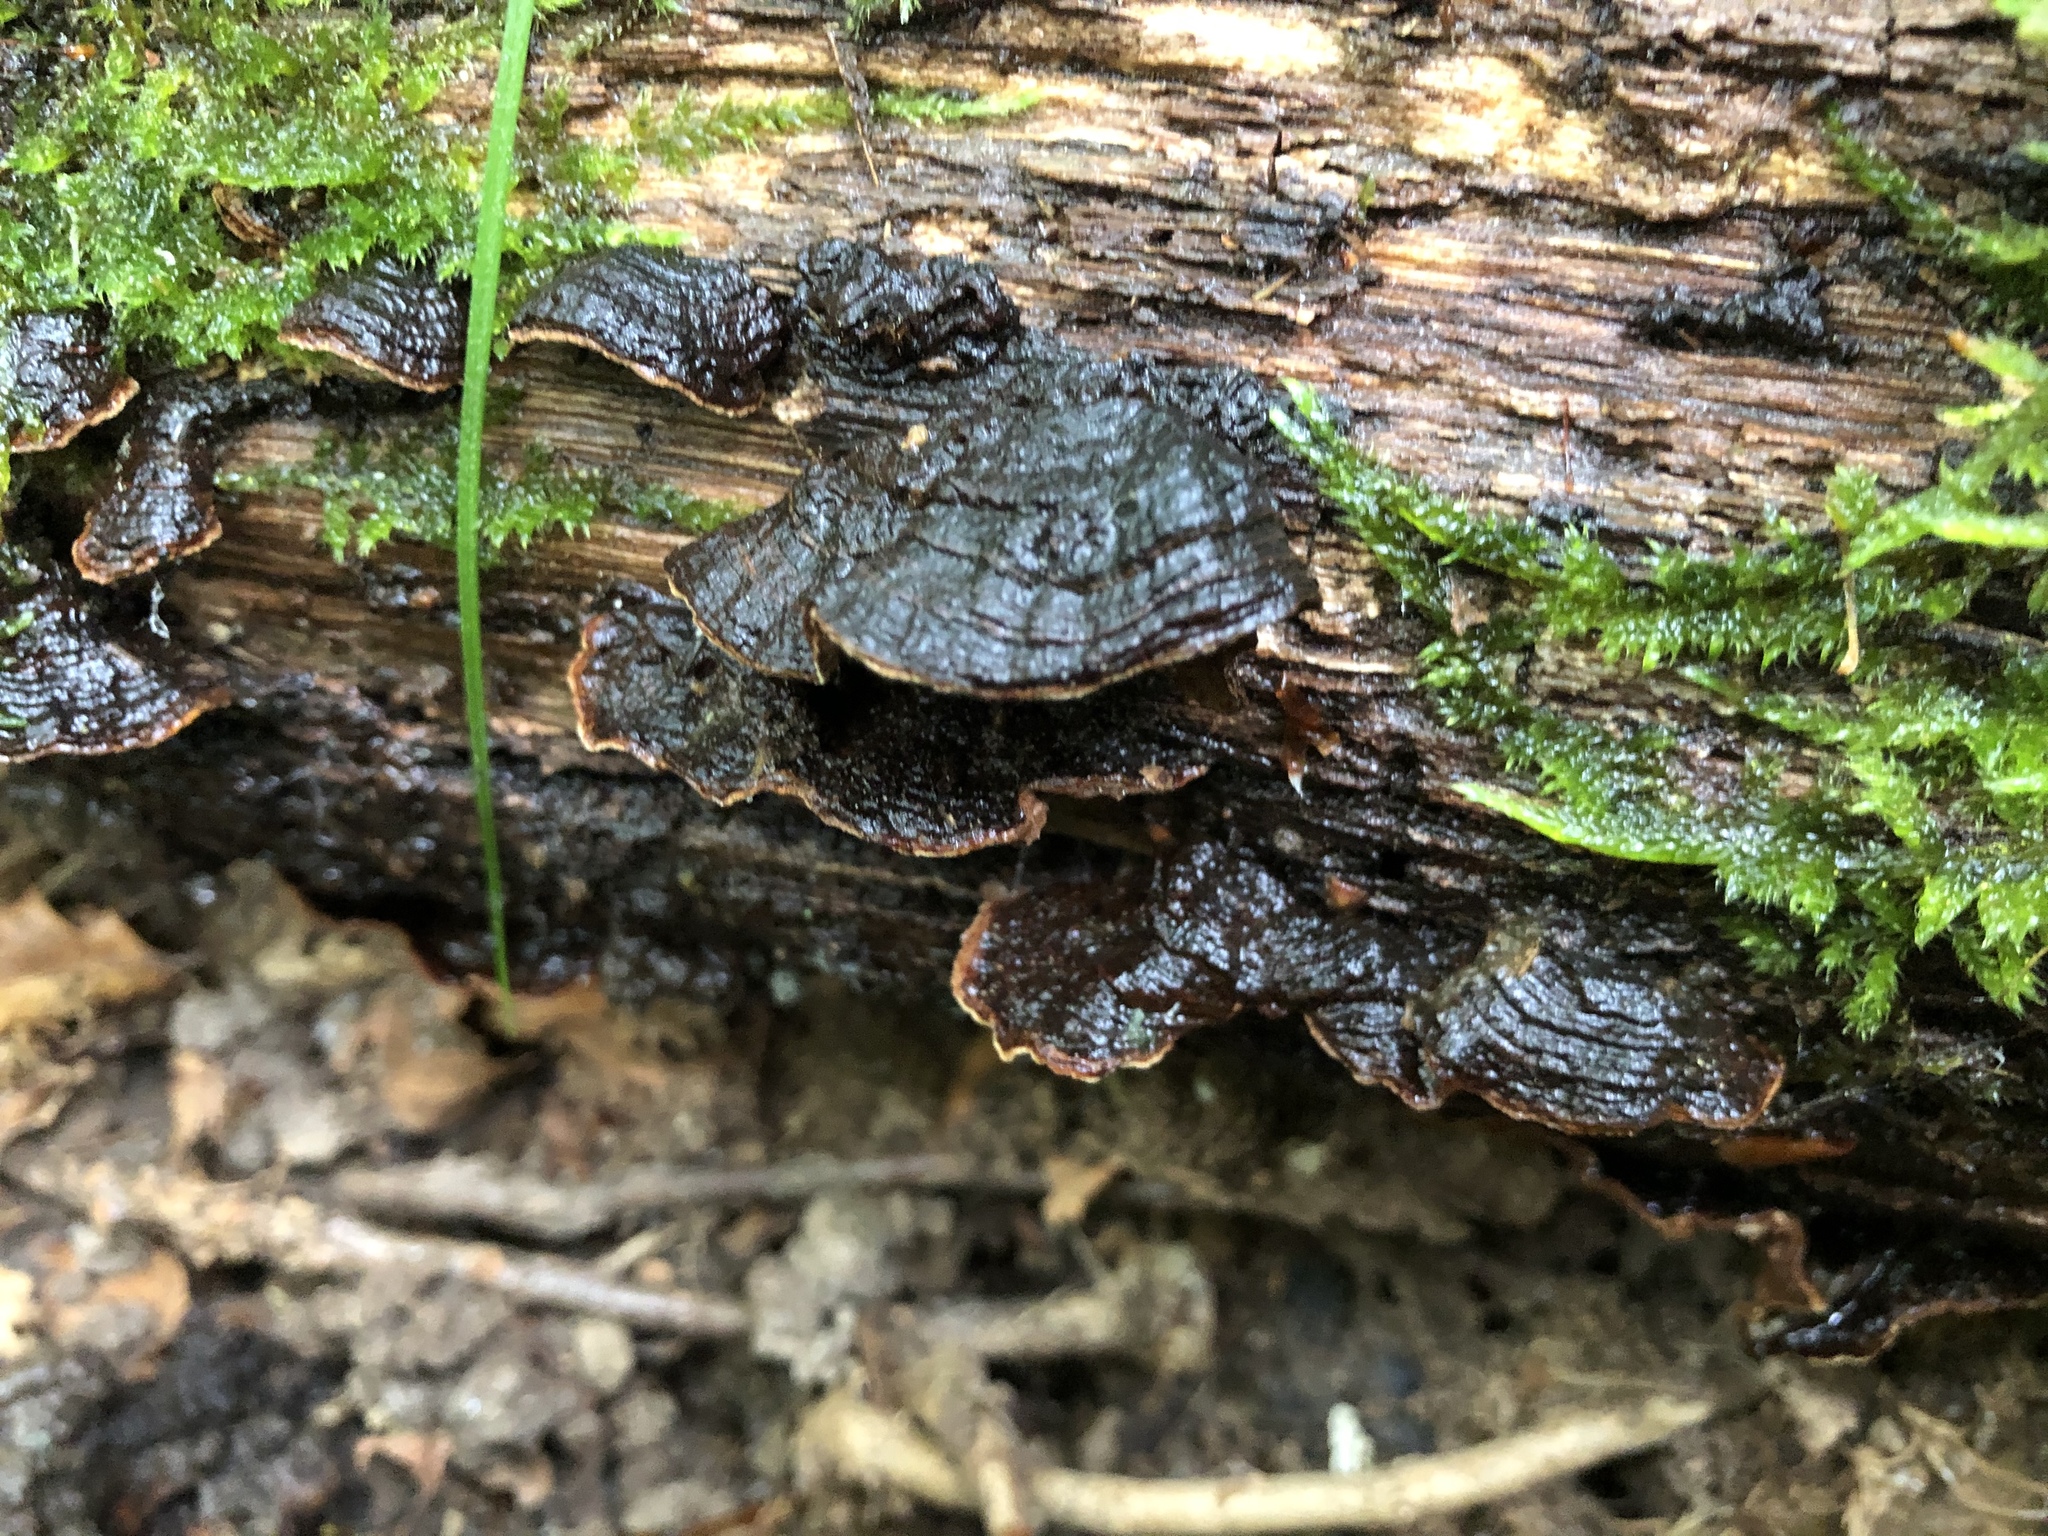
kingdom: Fungi
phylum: Basidiomycota
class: Agaricomycetes
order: Hymenochaetales
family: Hymenochaetaceae
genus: Hymenochaete
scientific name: Hymenochaete rubiginosa
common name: Oak curtain crust
